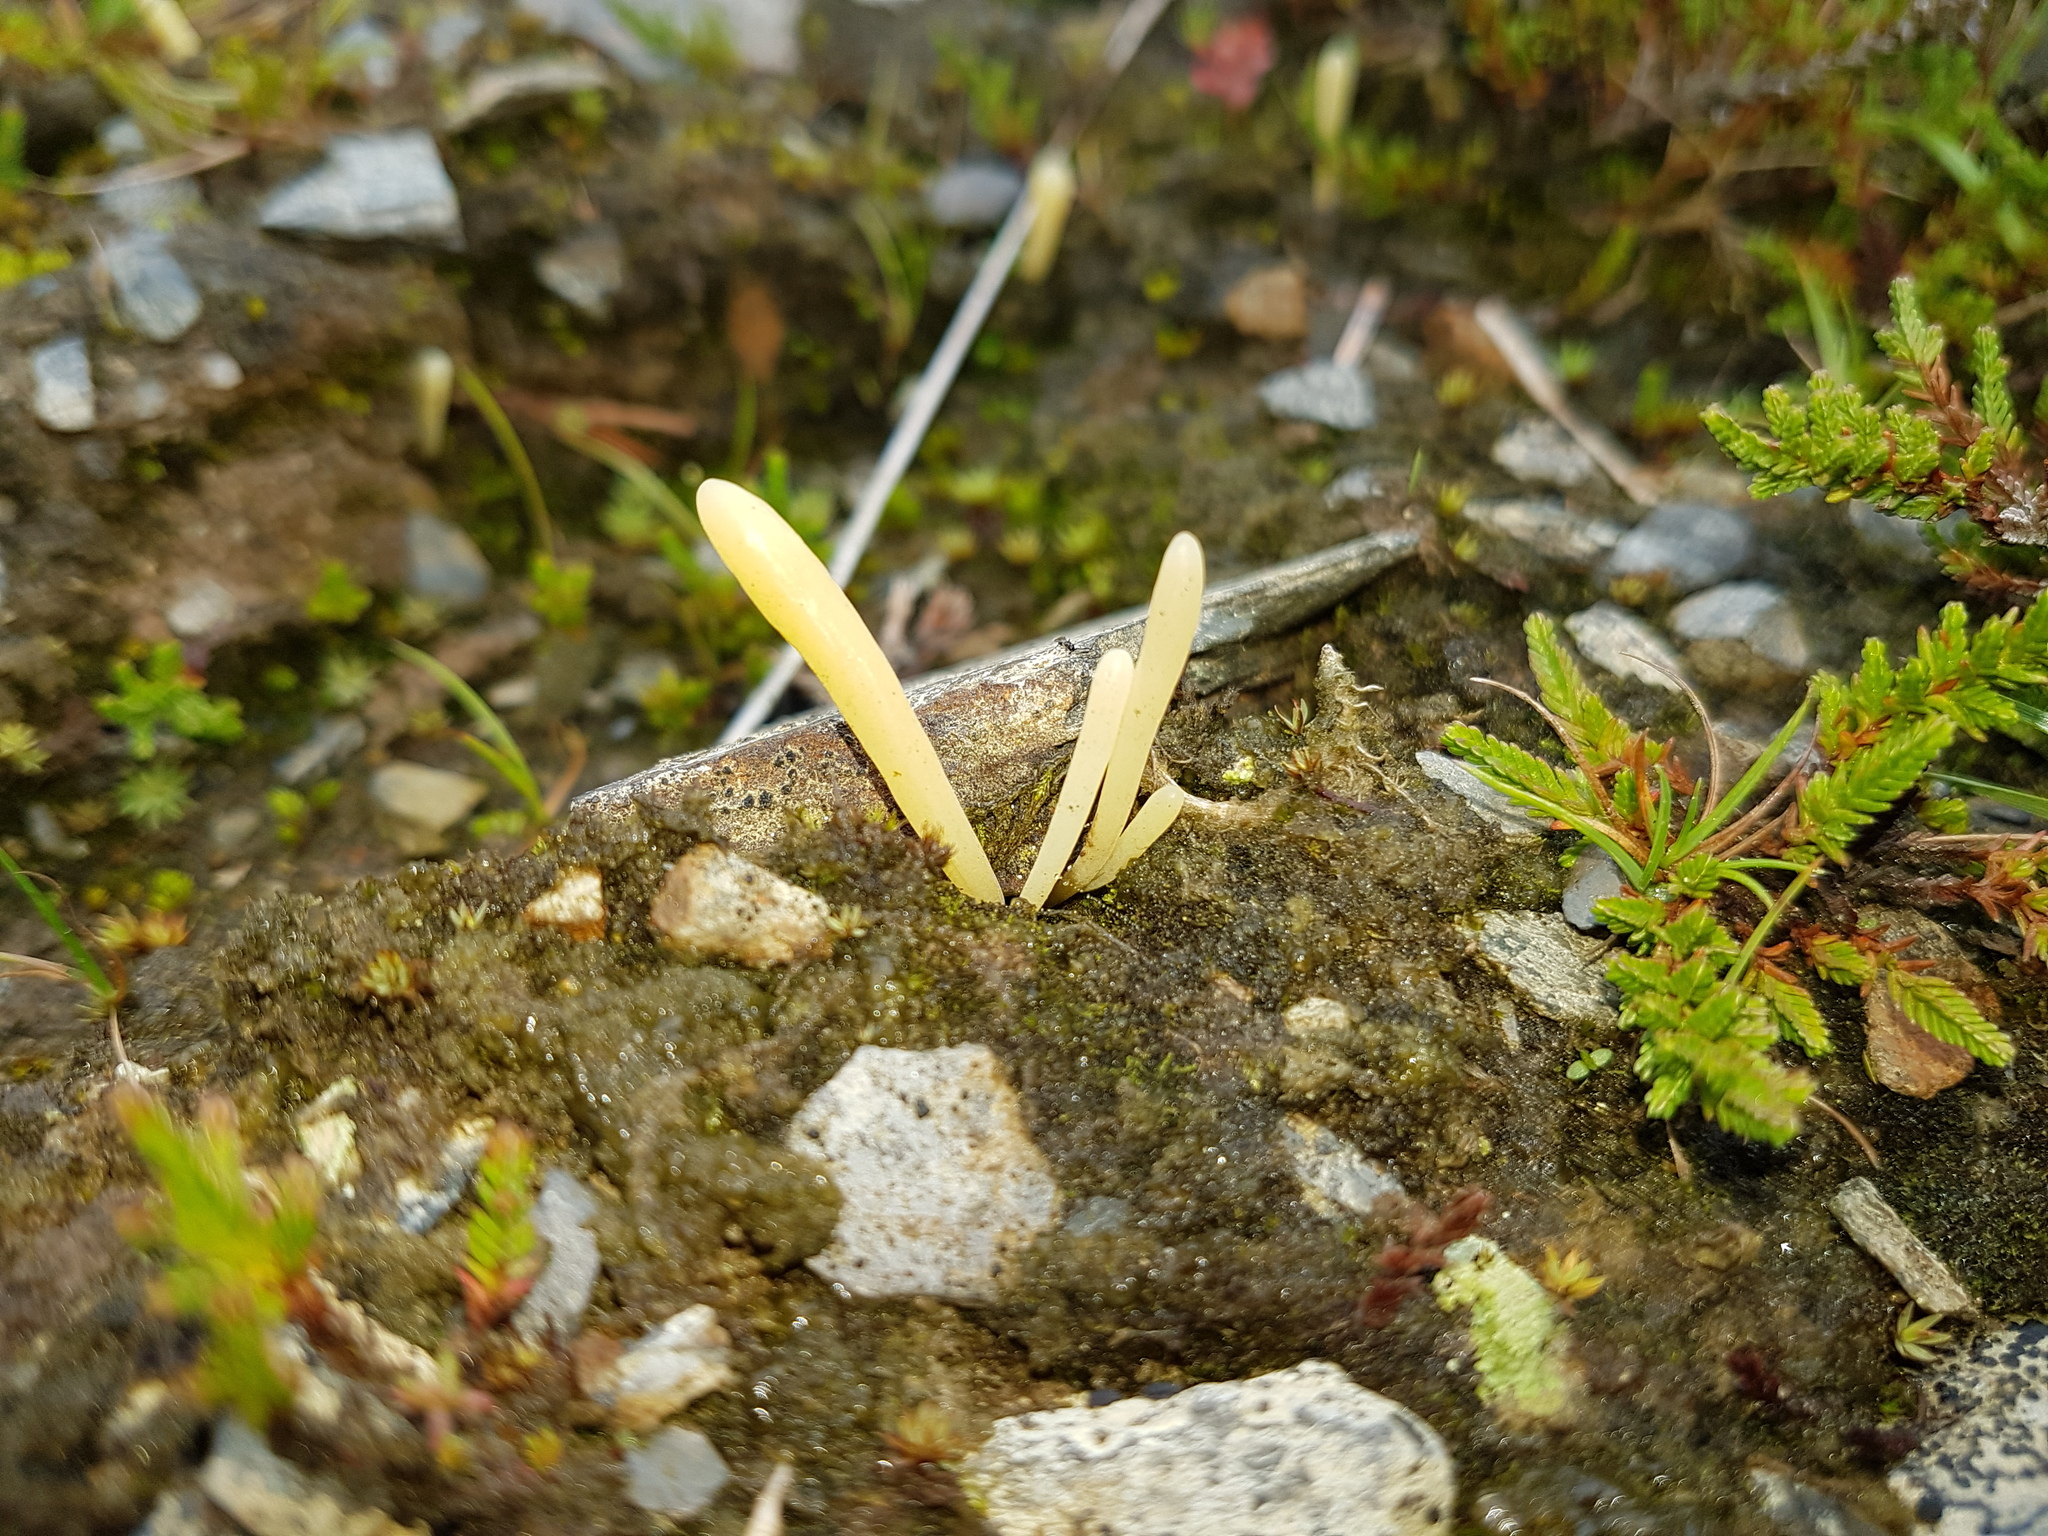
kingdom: Fungi
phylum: Basidiomycota
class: Agaricomycetes
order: Agaricales
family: Clavariaceae
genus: Clavaria
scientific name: Clavaria argillacea
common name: Moor club
